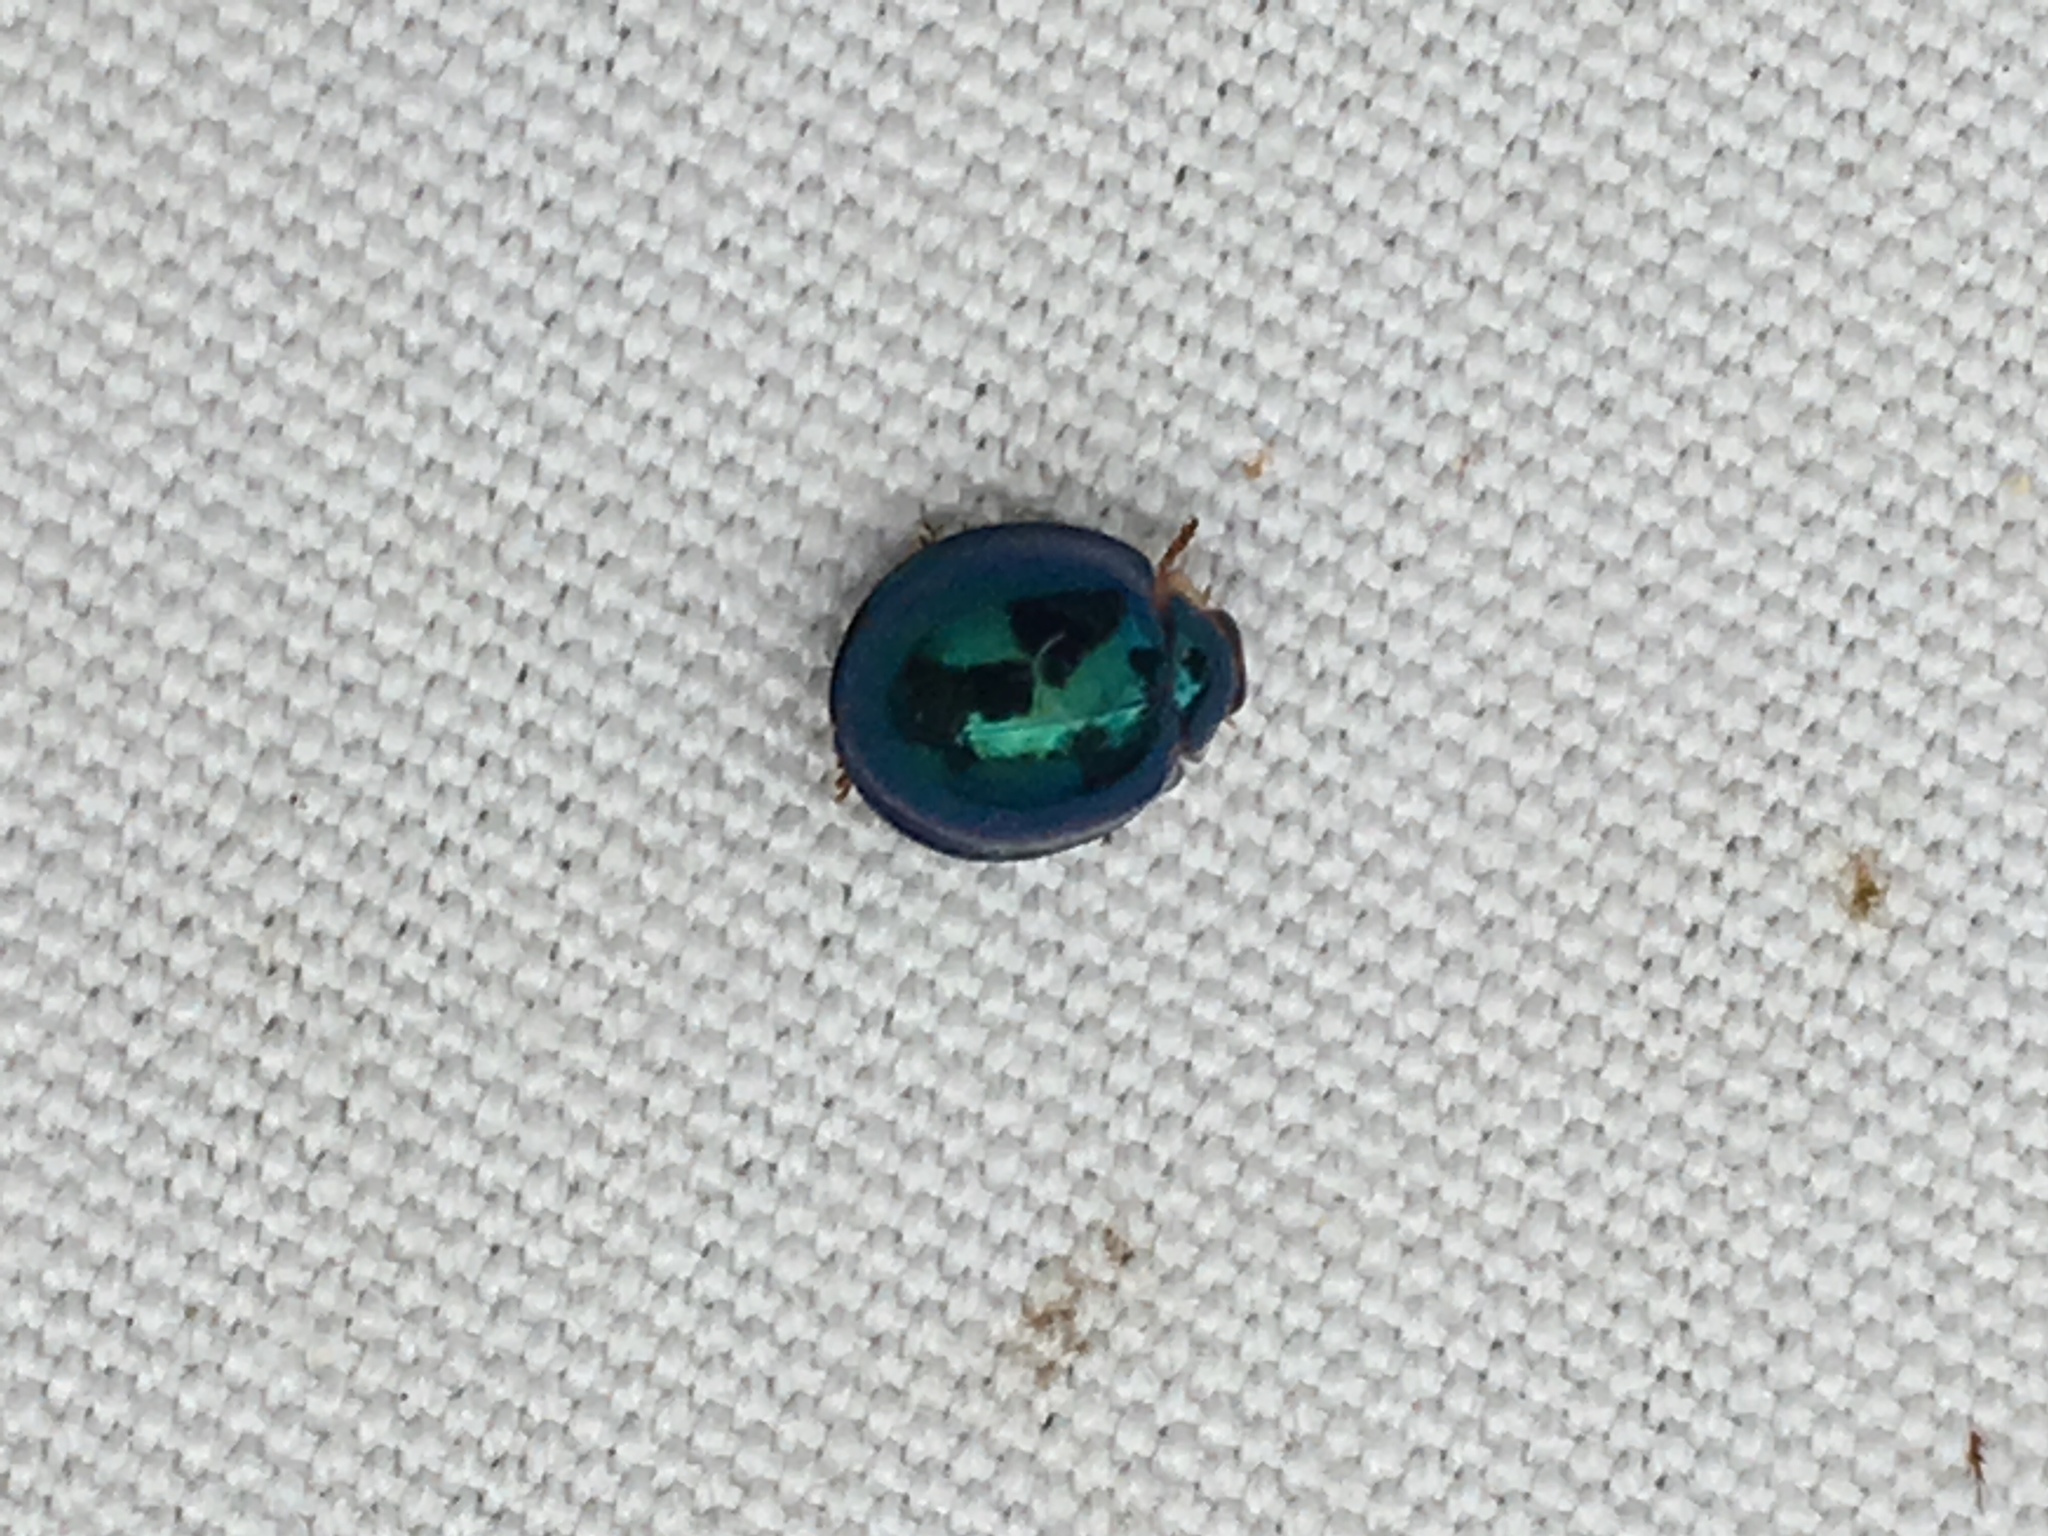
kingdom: Animalia
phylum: Arthropoda
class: Insecta
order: Coleoptera
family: Coccinellidae
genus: Halmus
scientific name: Halmus chalybeus
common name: Steel blue ladybird beetle
